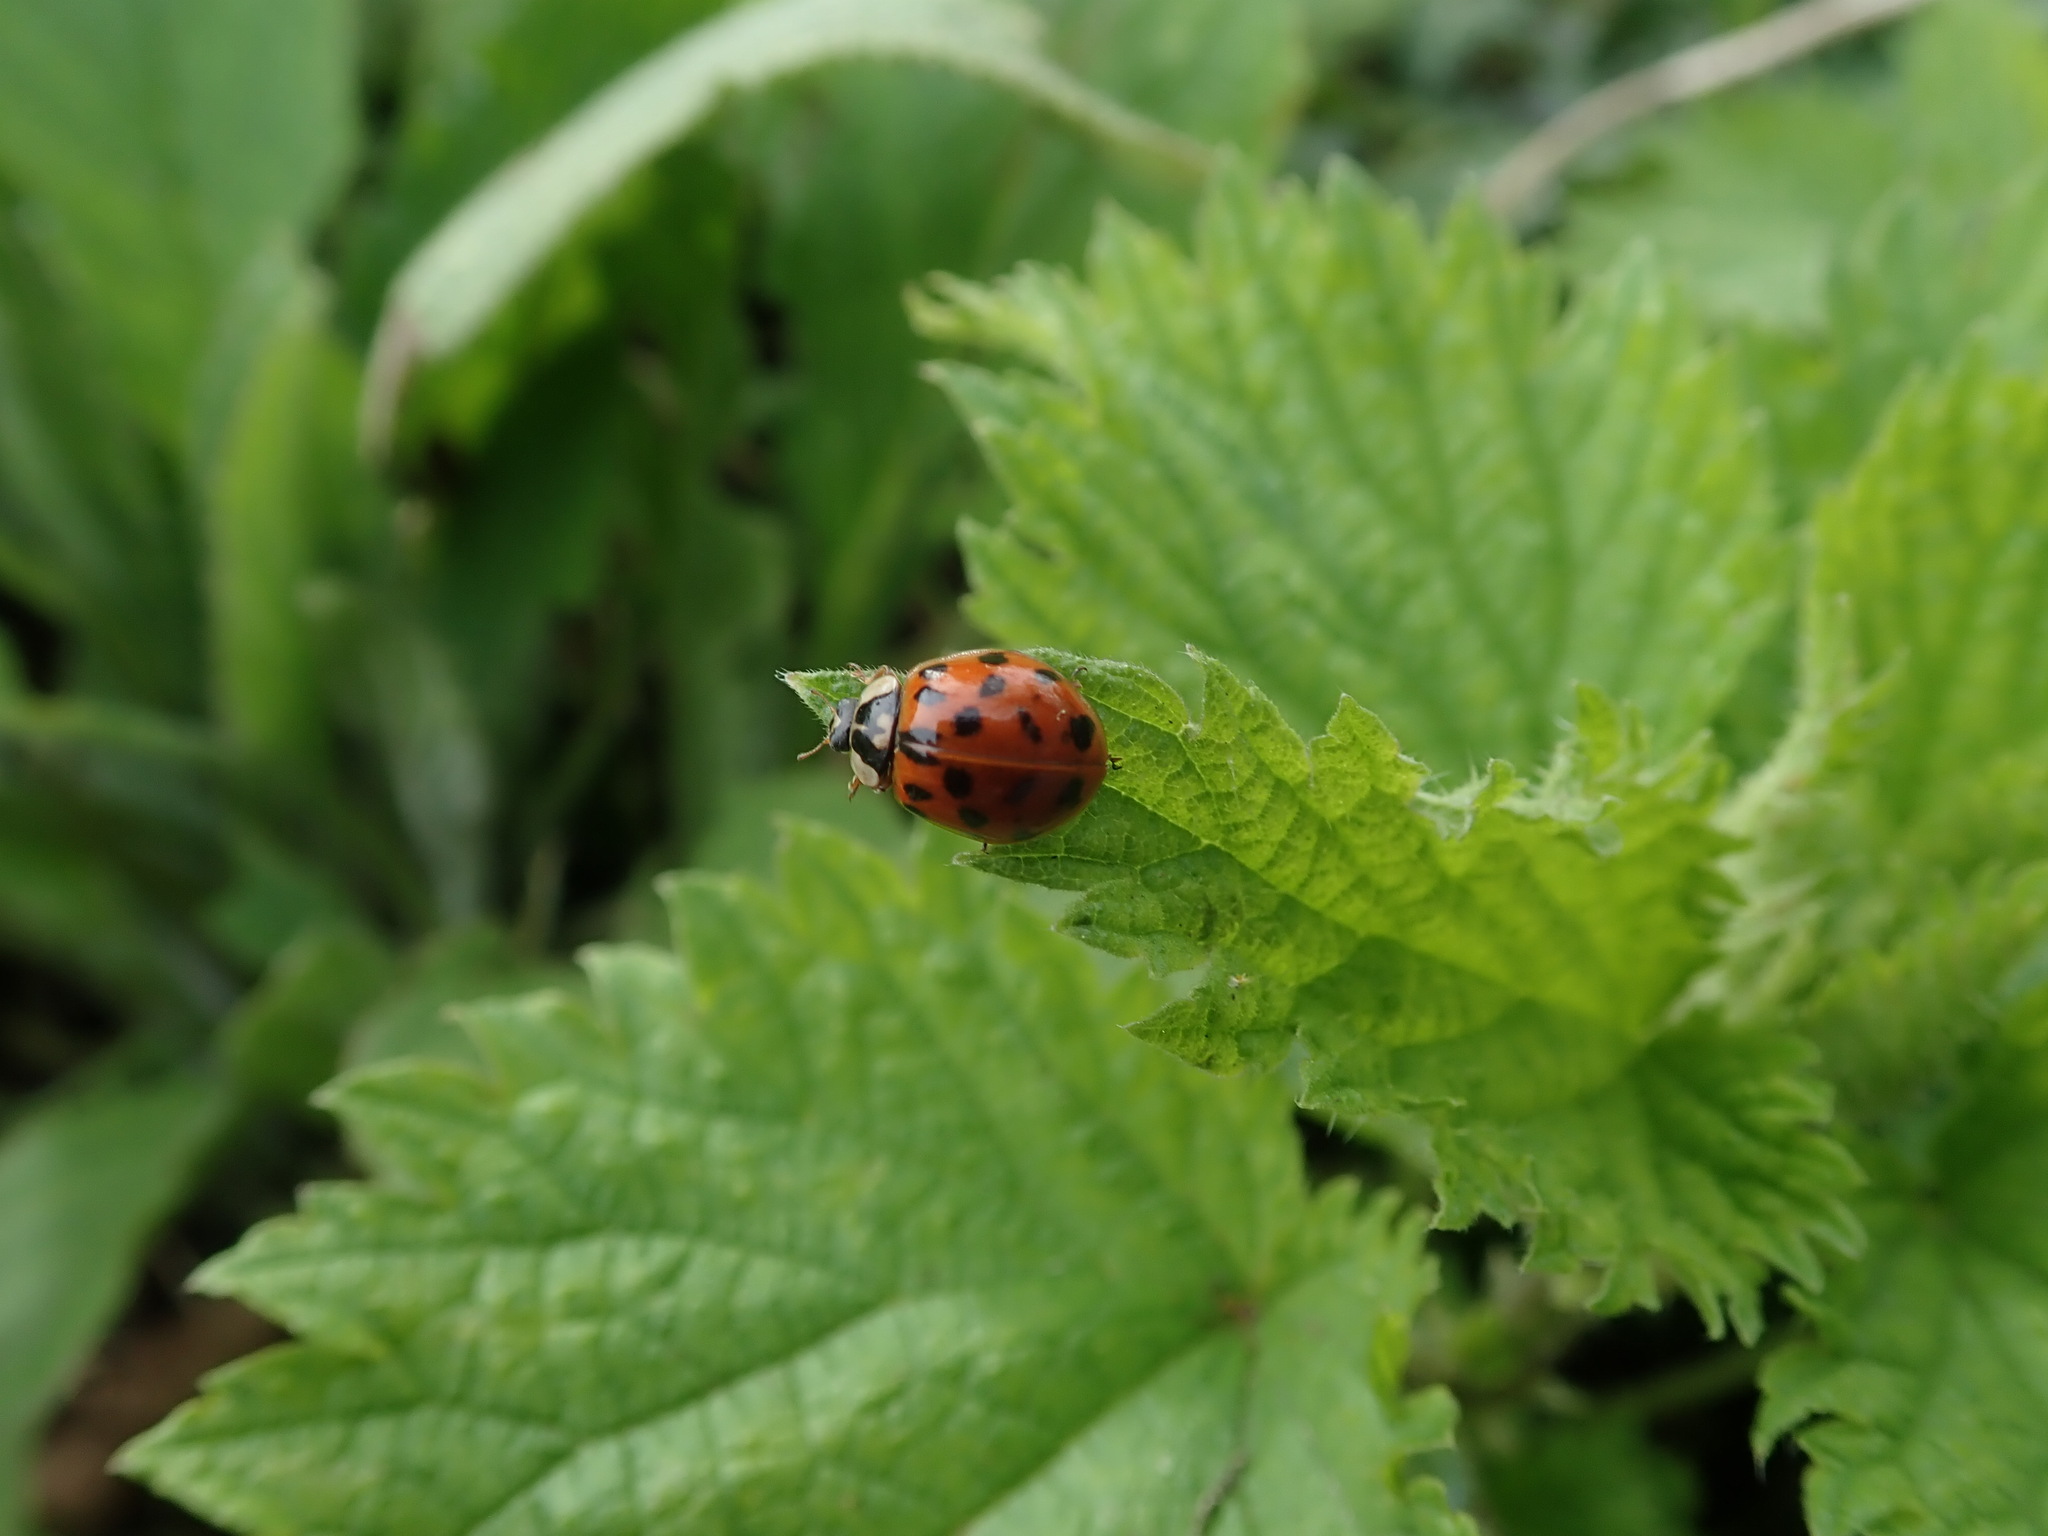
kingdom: Animalia
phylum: Arthropoda
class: Insecta
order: Coleoptera
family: Coccinellidae
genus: Harmonia
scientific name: Harmonia axyridis
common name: Harlequin ladybird
